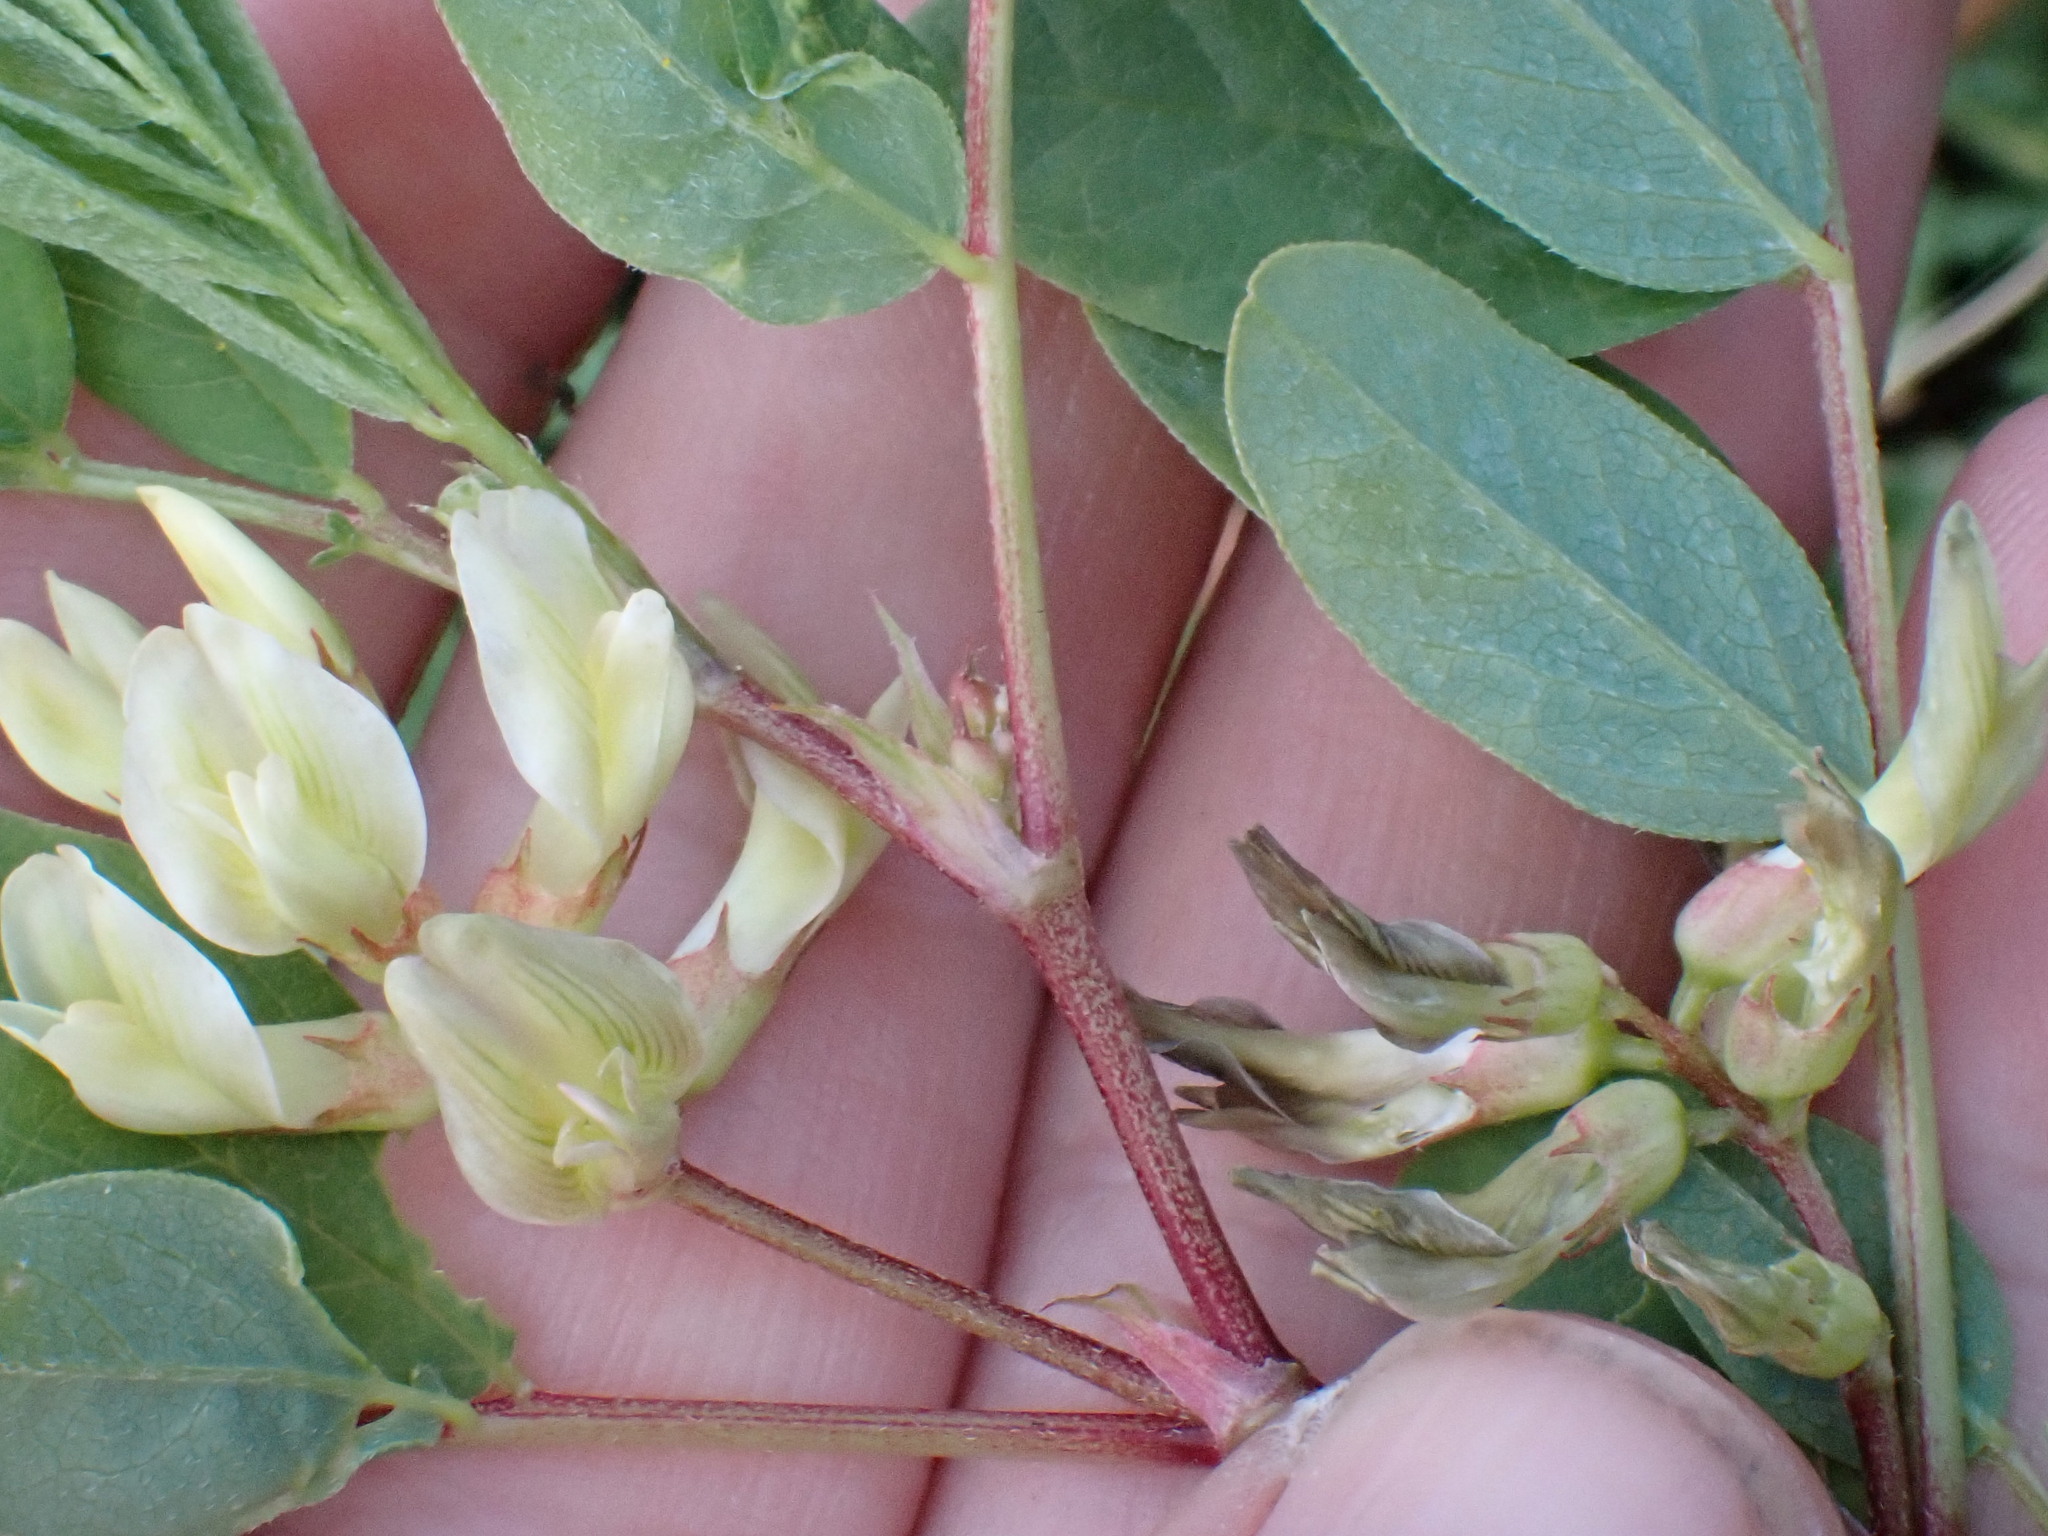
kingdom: Plantae
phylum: Tracheophyta
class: Magnoliopsida
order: Fabales
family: Fabaceae
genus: Astragalus
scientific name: Astragalus glycyphyllos
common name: Wild liquorice
